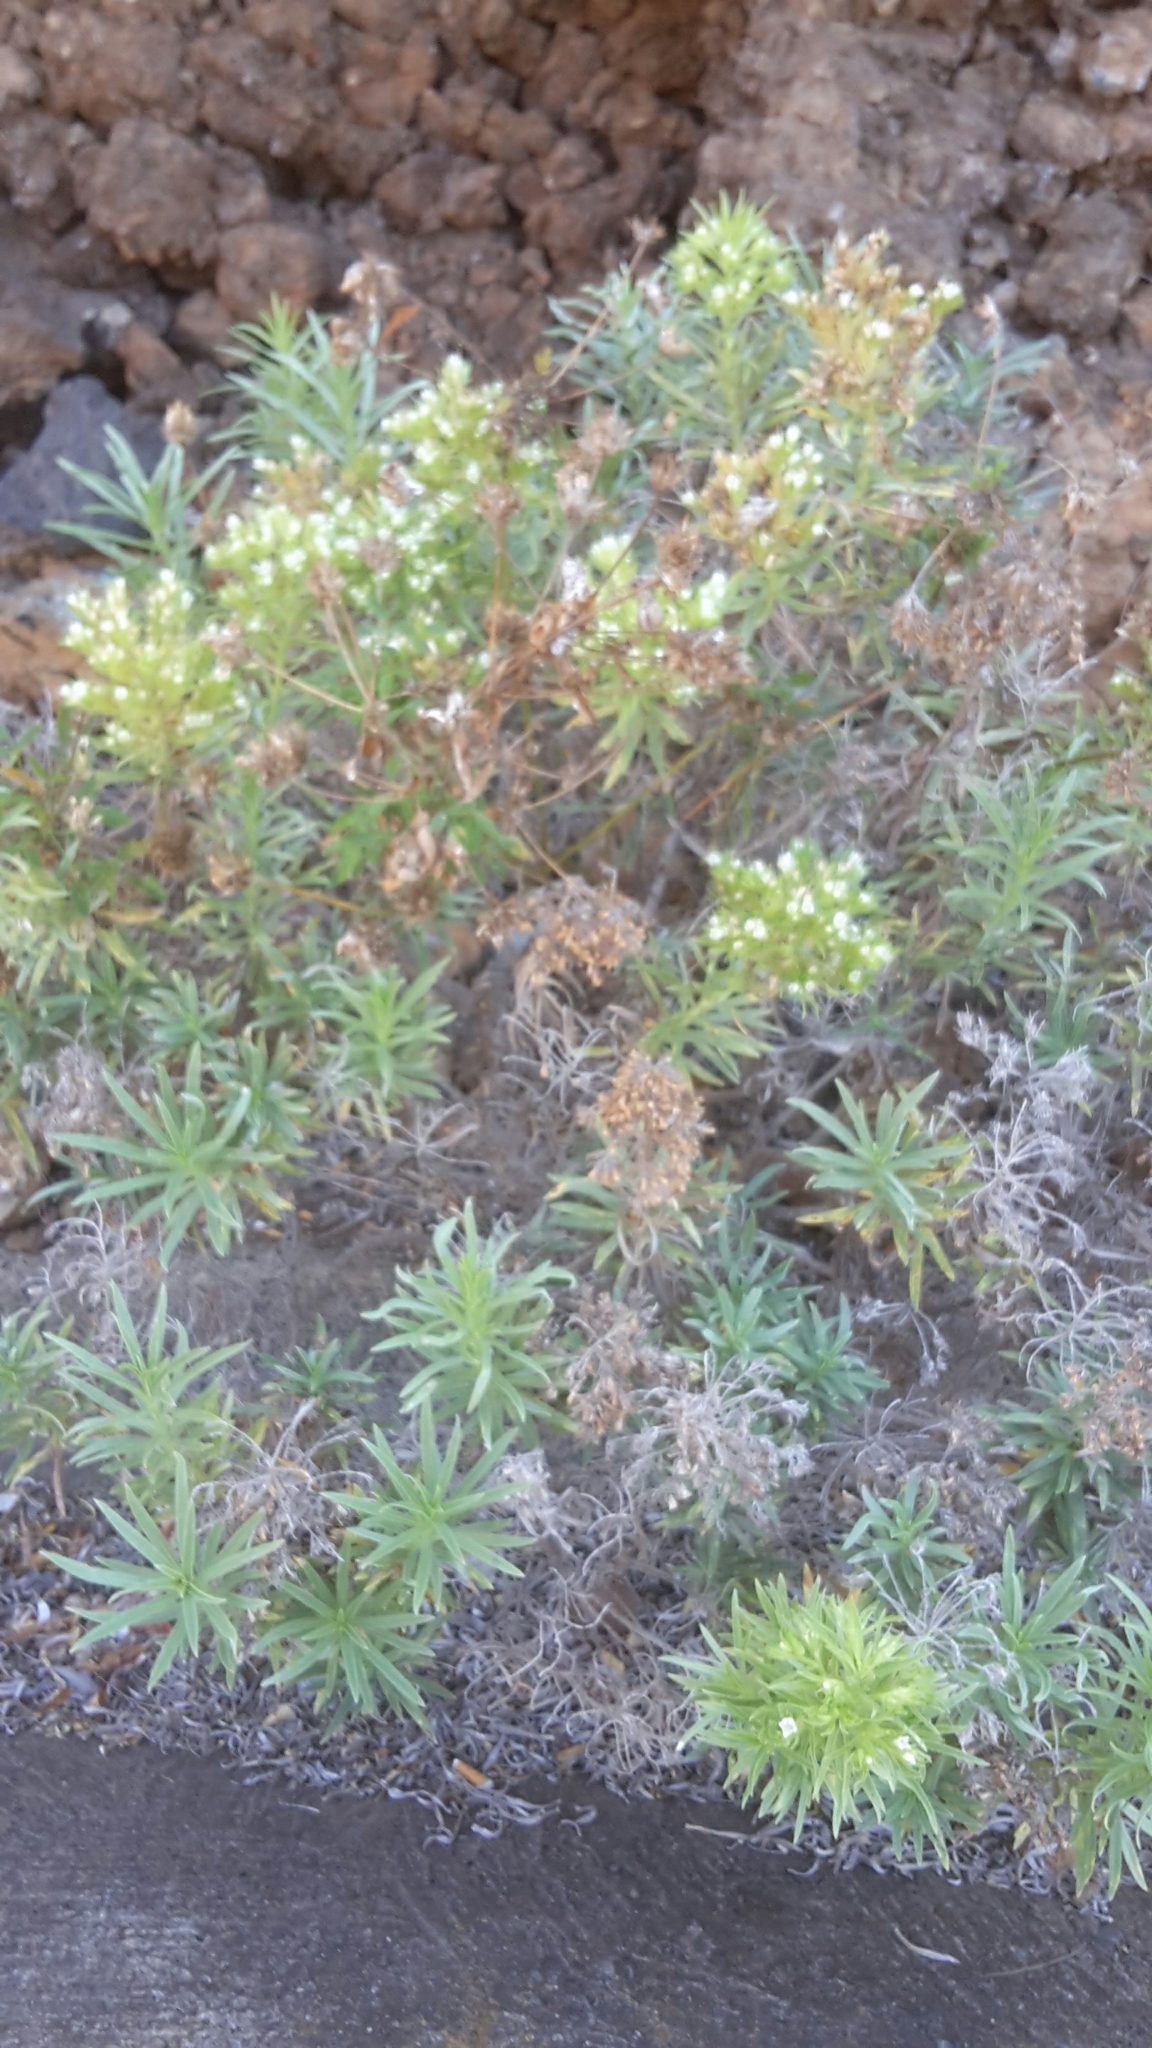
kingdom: Plantae
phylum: Tracheophyta
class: Magnoliopsida
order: Boraginales
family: Boraginaceae
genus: Echium
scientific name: Echium brevirame
